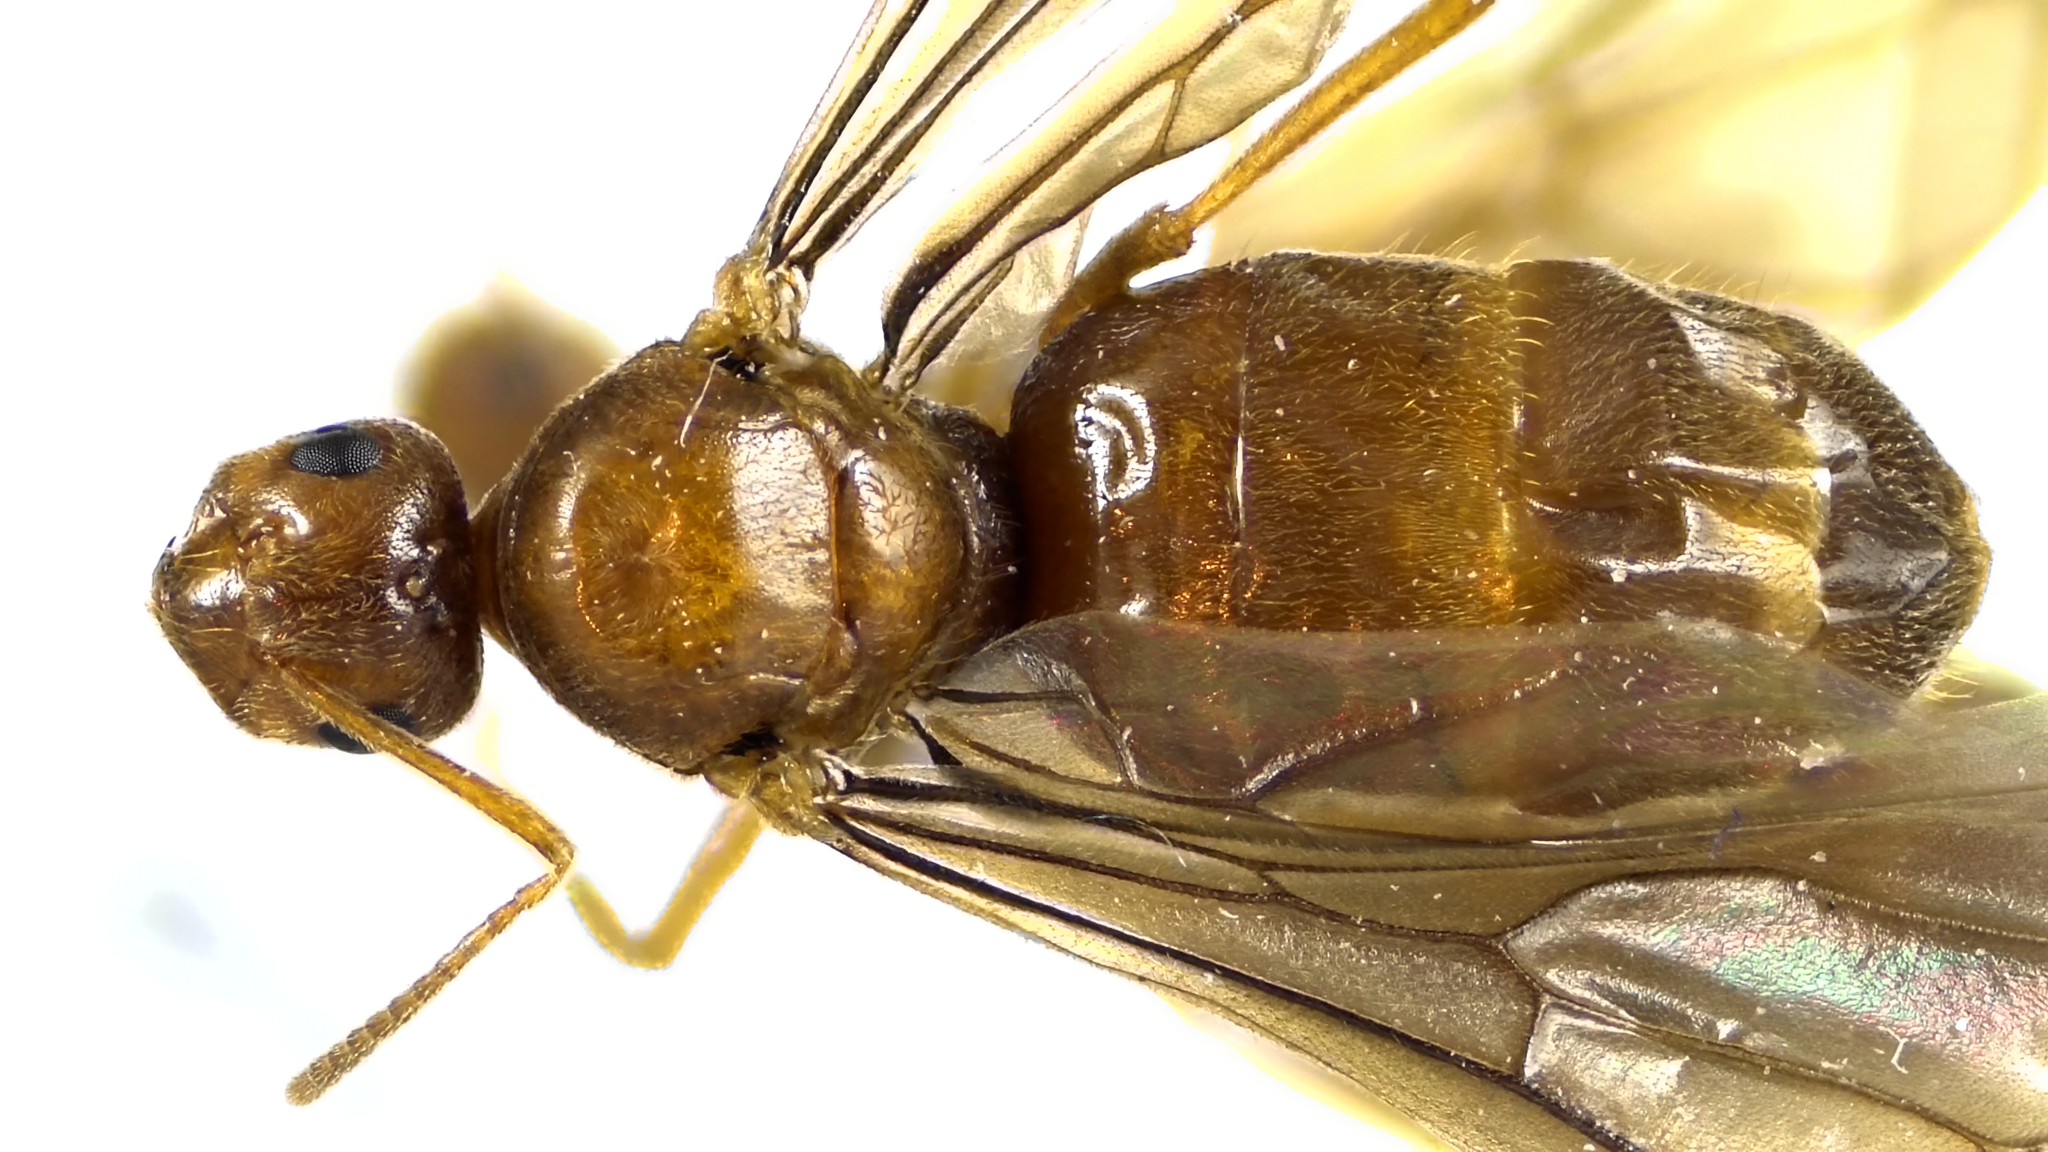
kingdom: Animalia
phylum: Arthropoda
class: Insecta
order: Hymenoptera
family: Formicidae
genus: Prenolepis
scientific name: Prenolepis imparis
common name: Small honey ant
